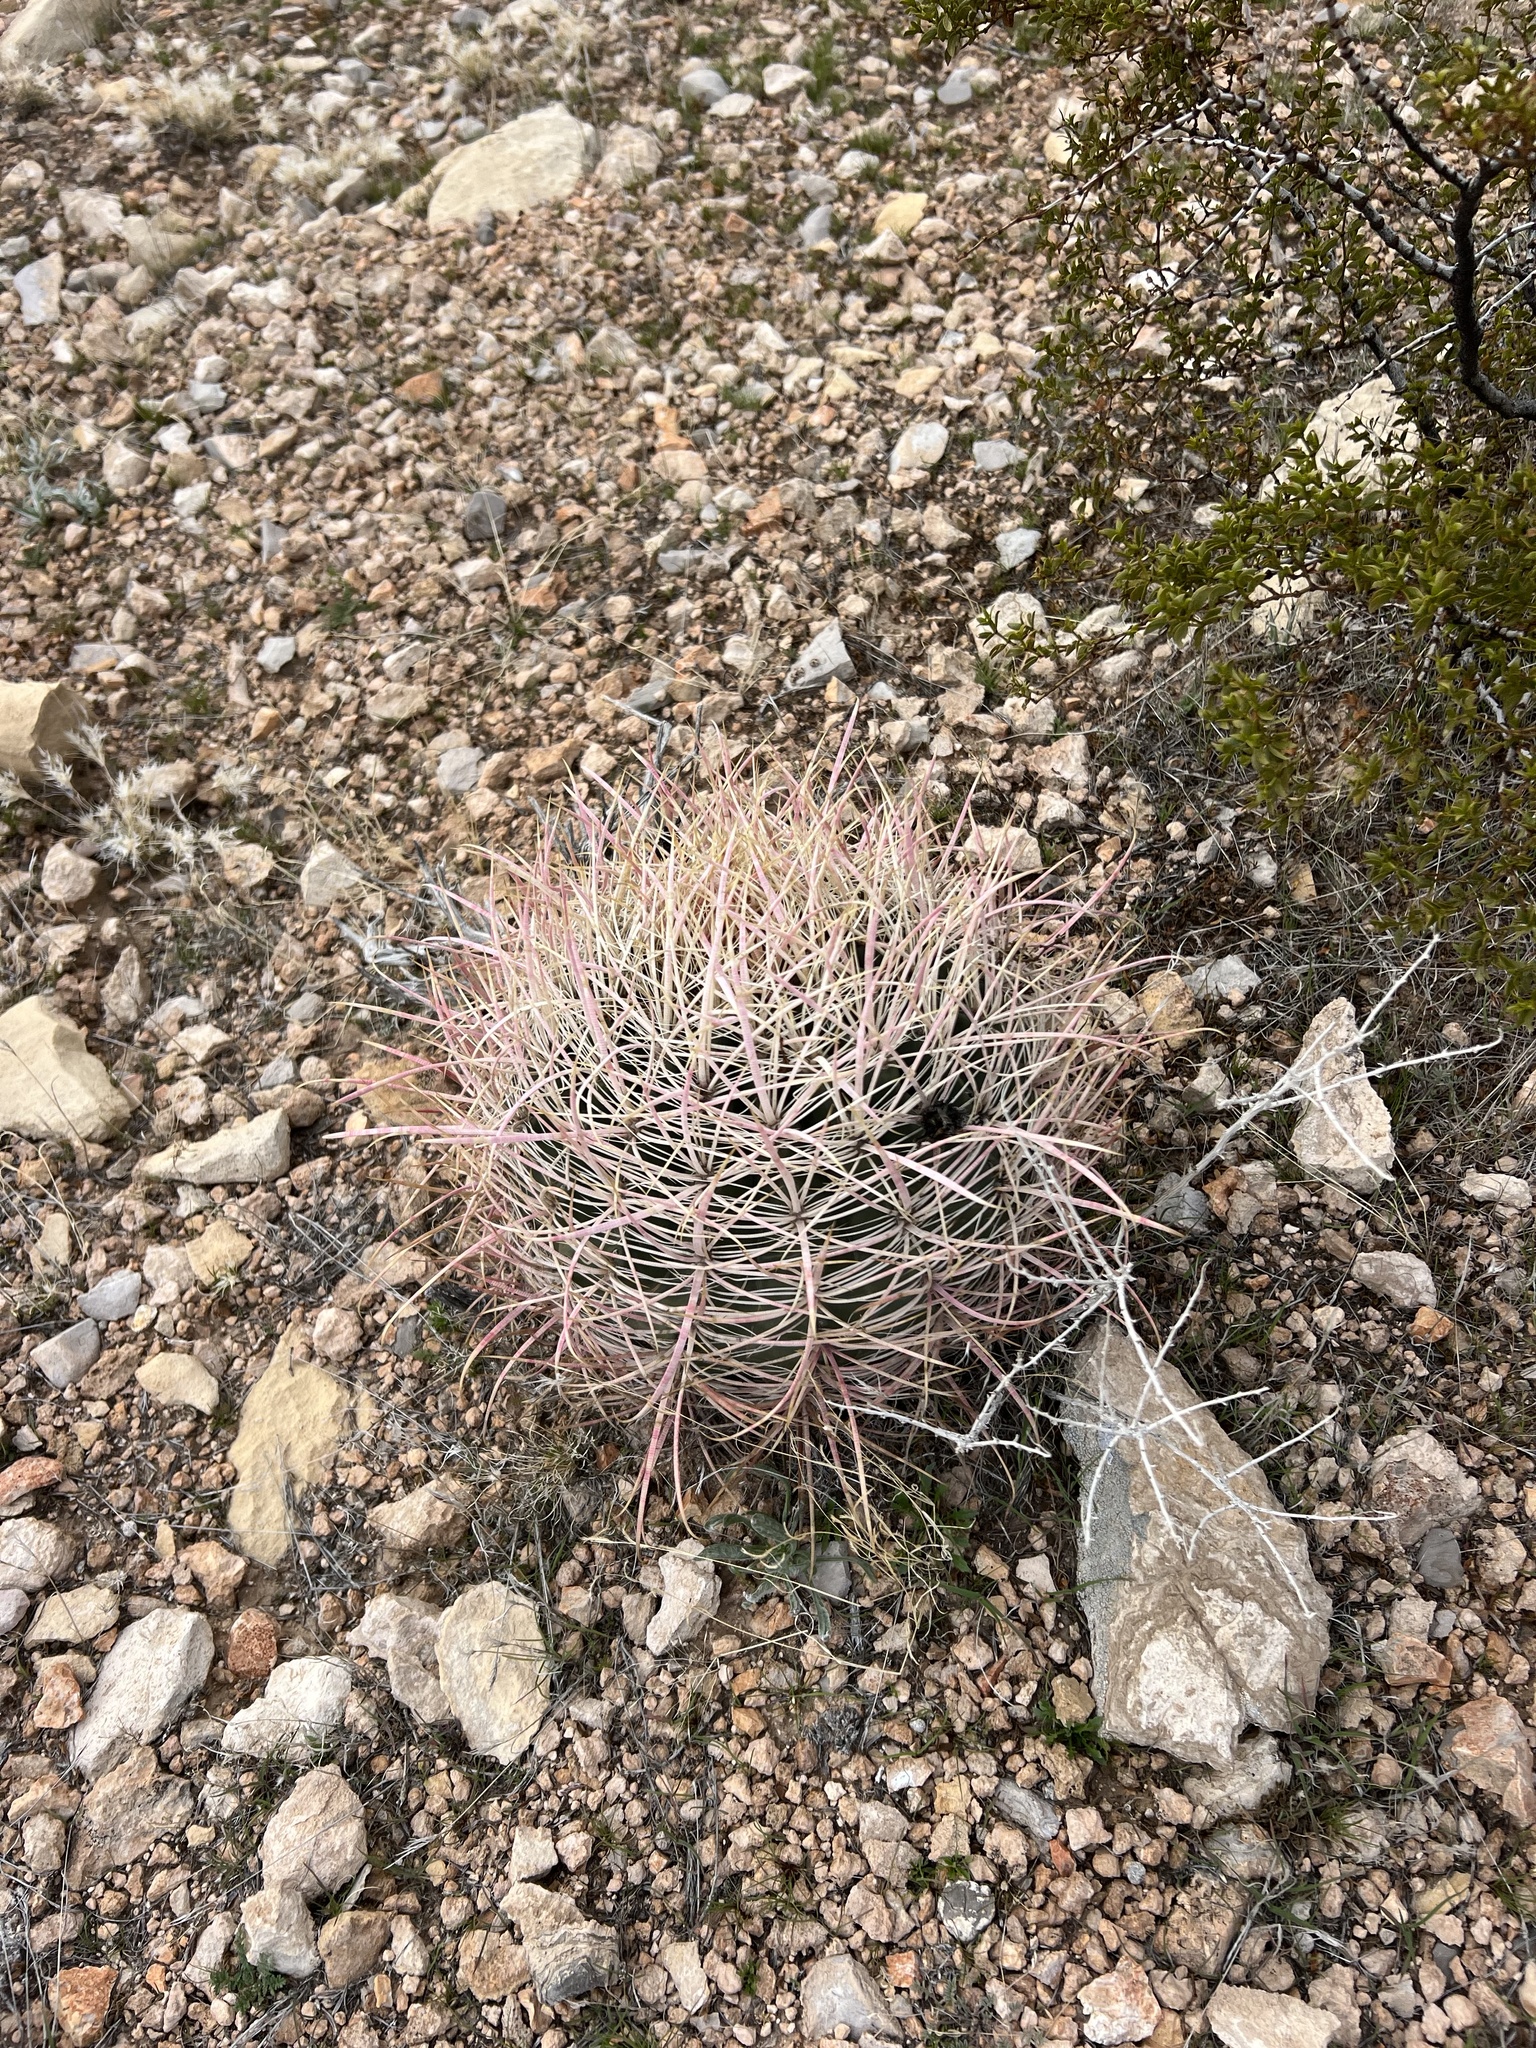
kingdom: Plantae
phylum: Tracheophyta
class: Magnoliopsida
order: Caryophyllales
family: Cactaceae
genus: Ferocactus
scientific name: Ferocactus cylindraceus
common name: California barrel cactus
